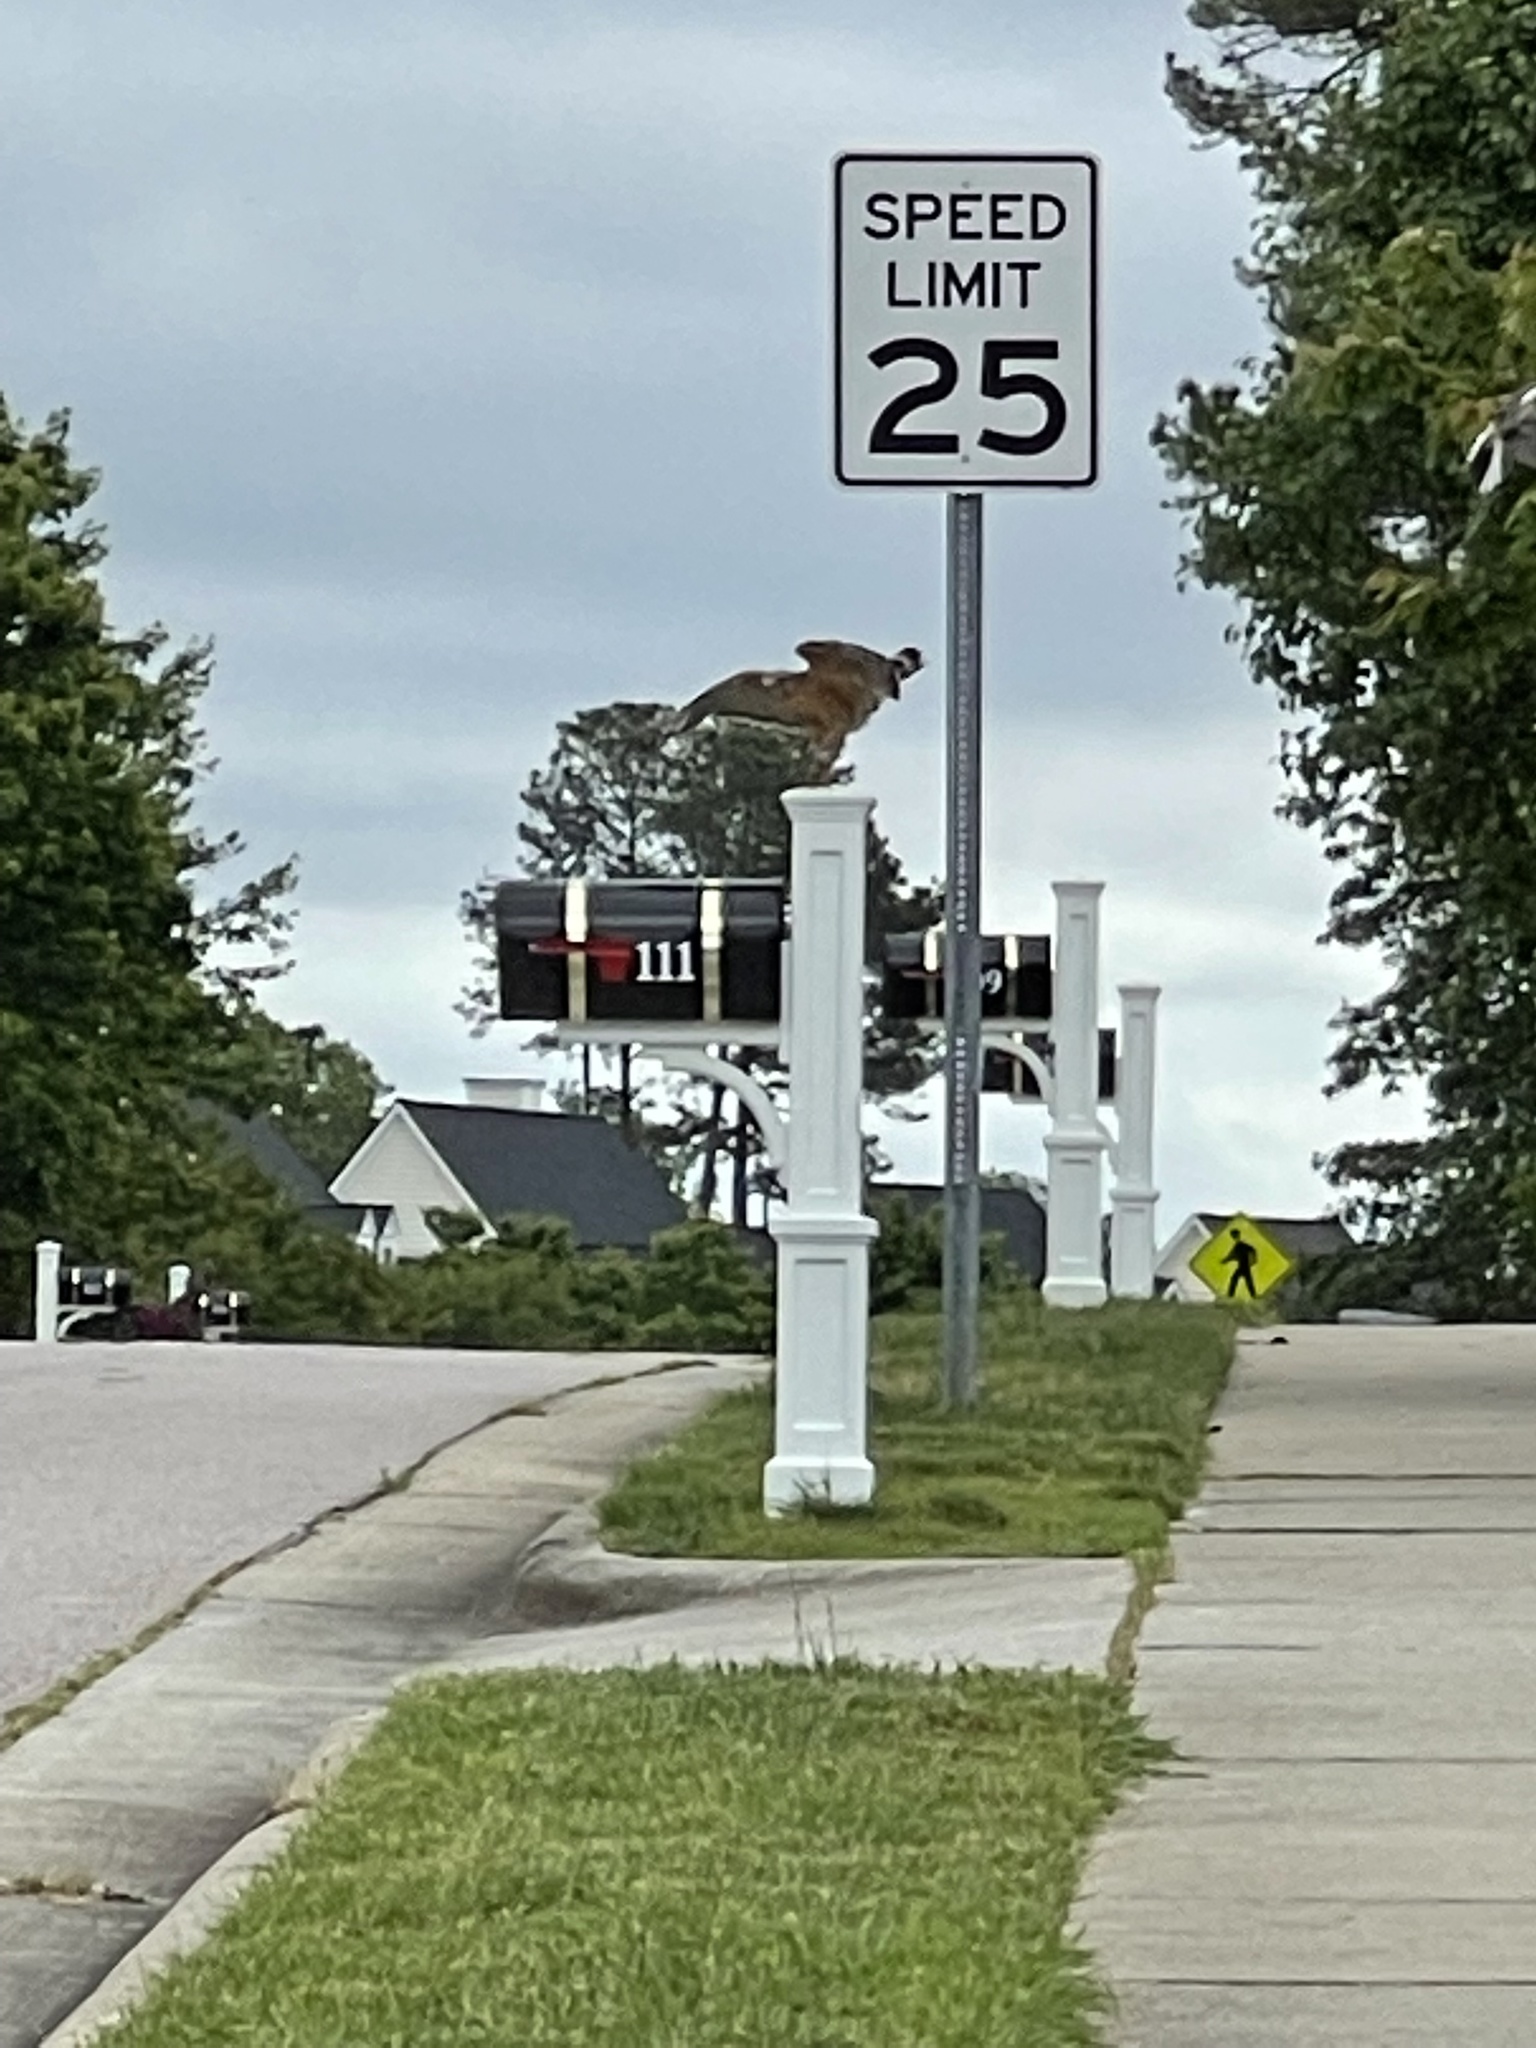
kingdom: Animalia
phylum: Chordata
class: Aves
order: Accipitriformes
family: Accipitridae
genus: Buteo
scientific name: Buteo lineatus
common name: Red-shouldered hawk
